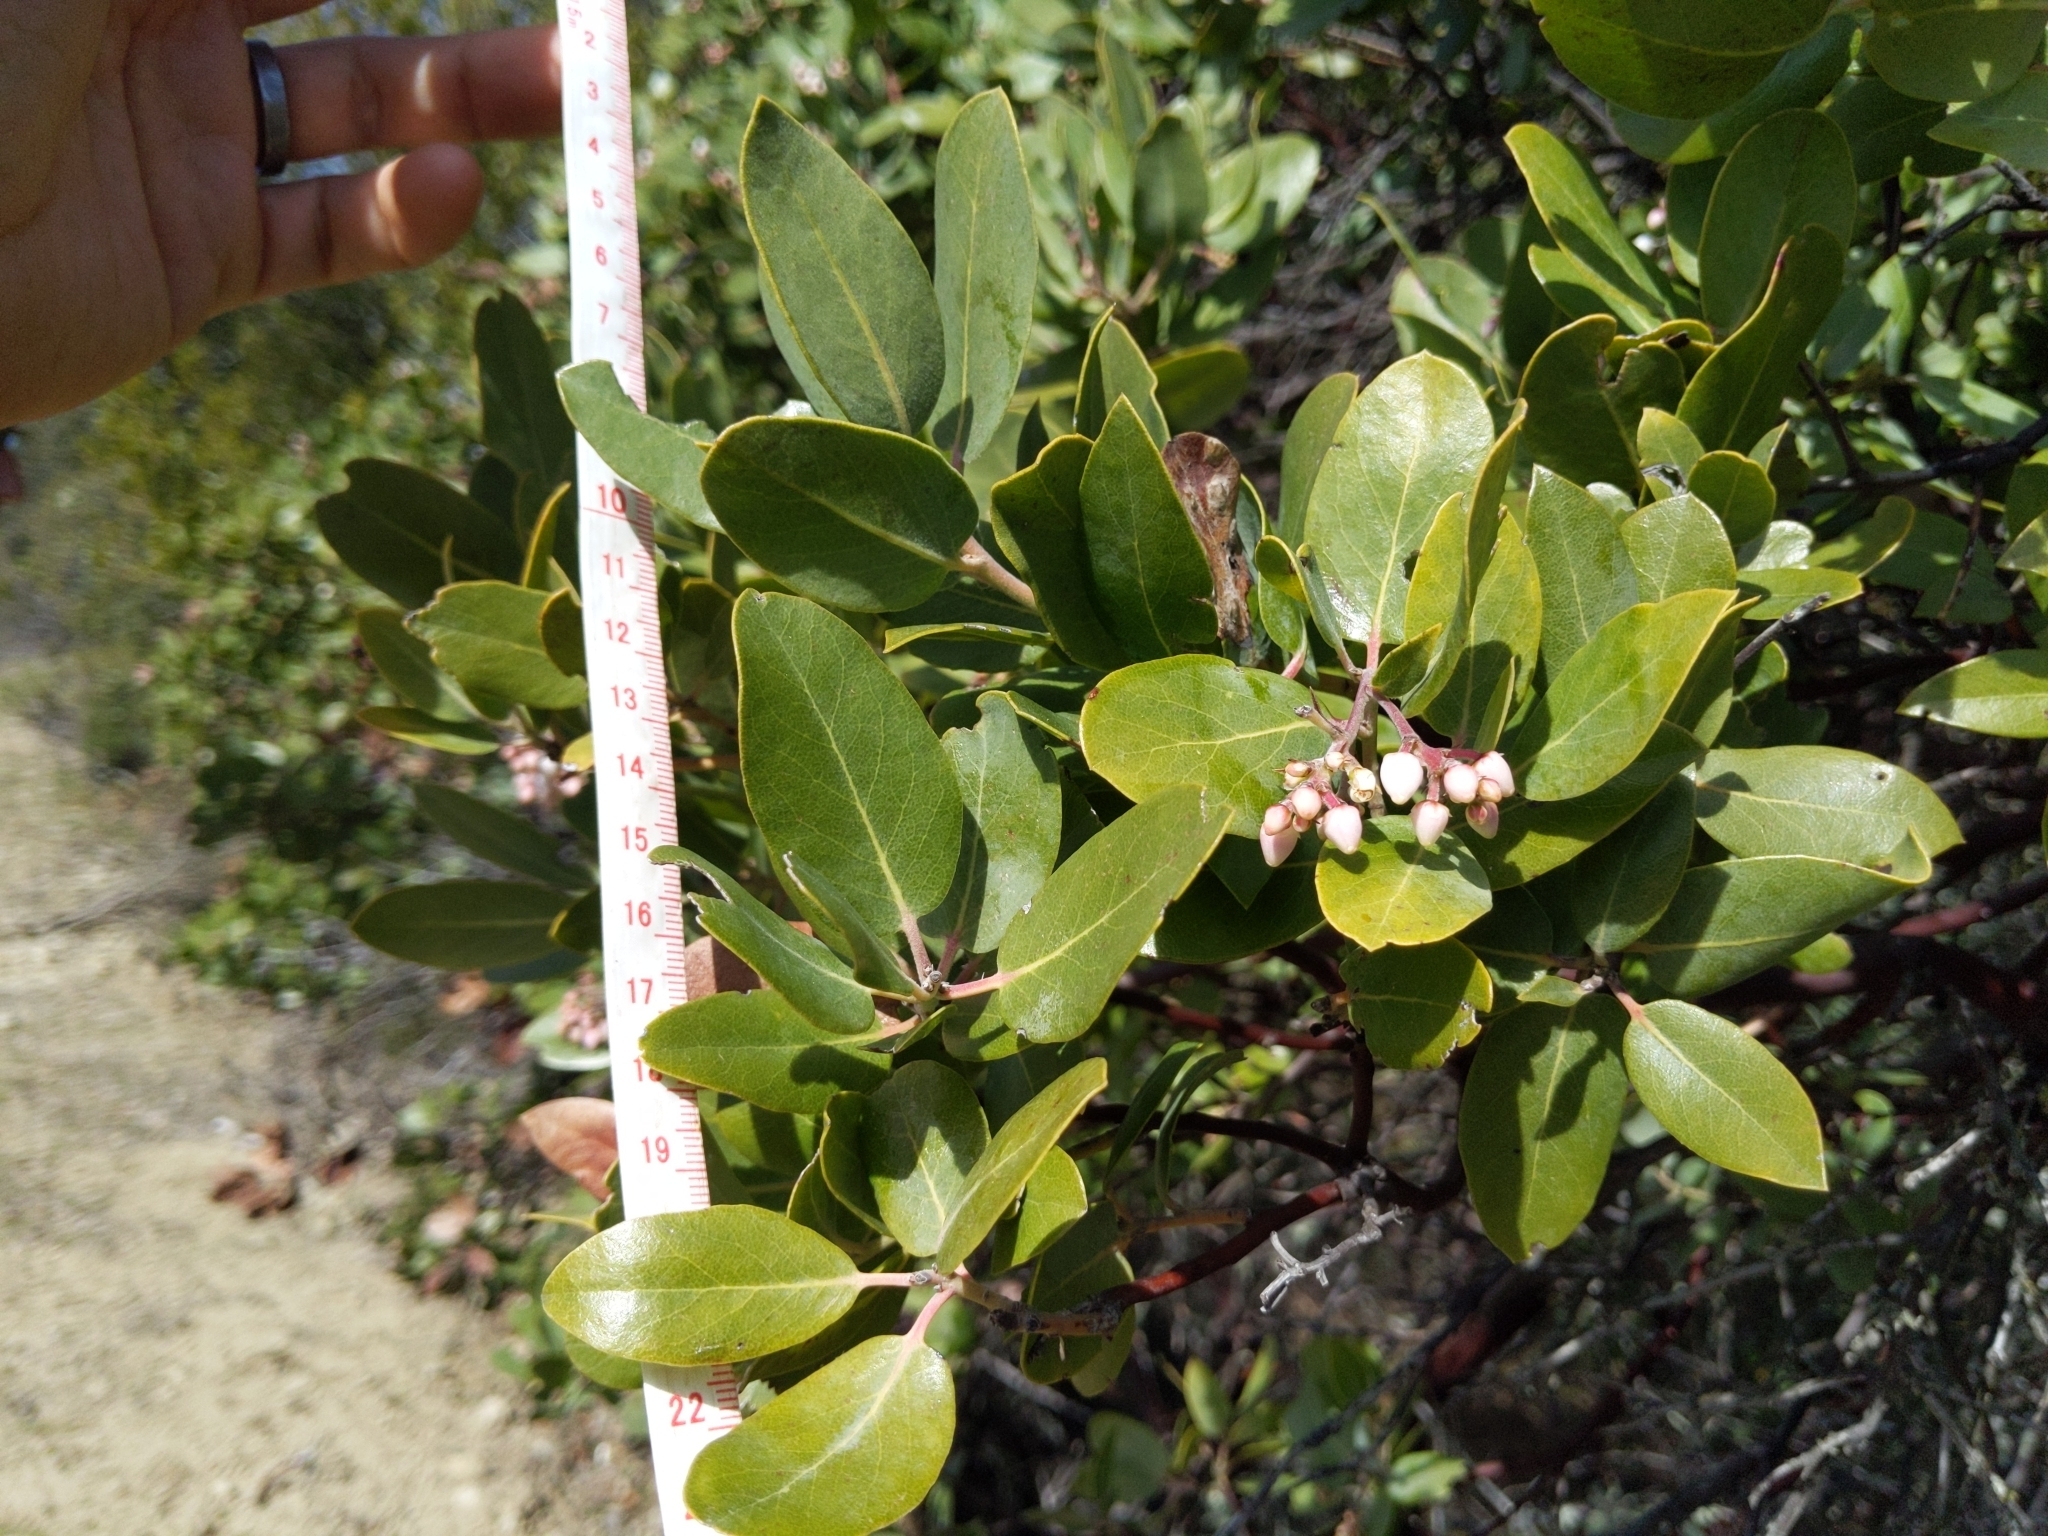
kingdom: Plantae
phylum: Tracheophyta
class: Magnoliopsida
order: Ericales
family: Ericaceae
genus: Arctostaphylos
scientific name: Arctostaphylos crustacea
